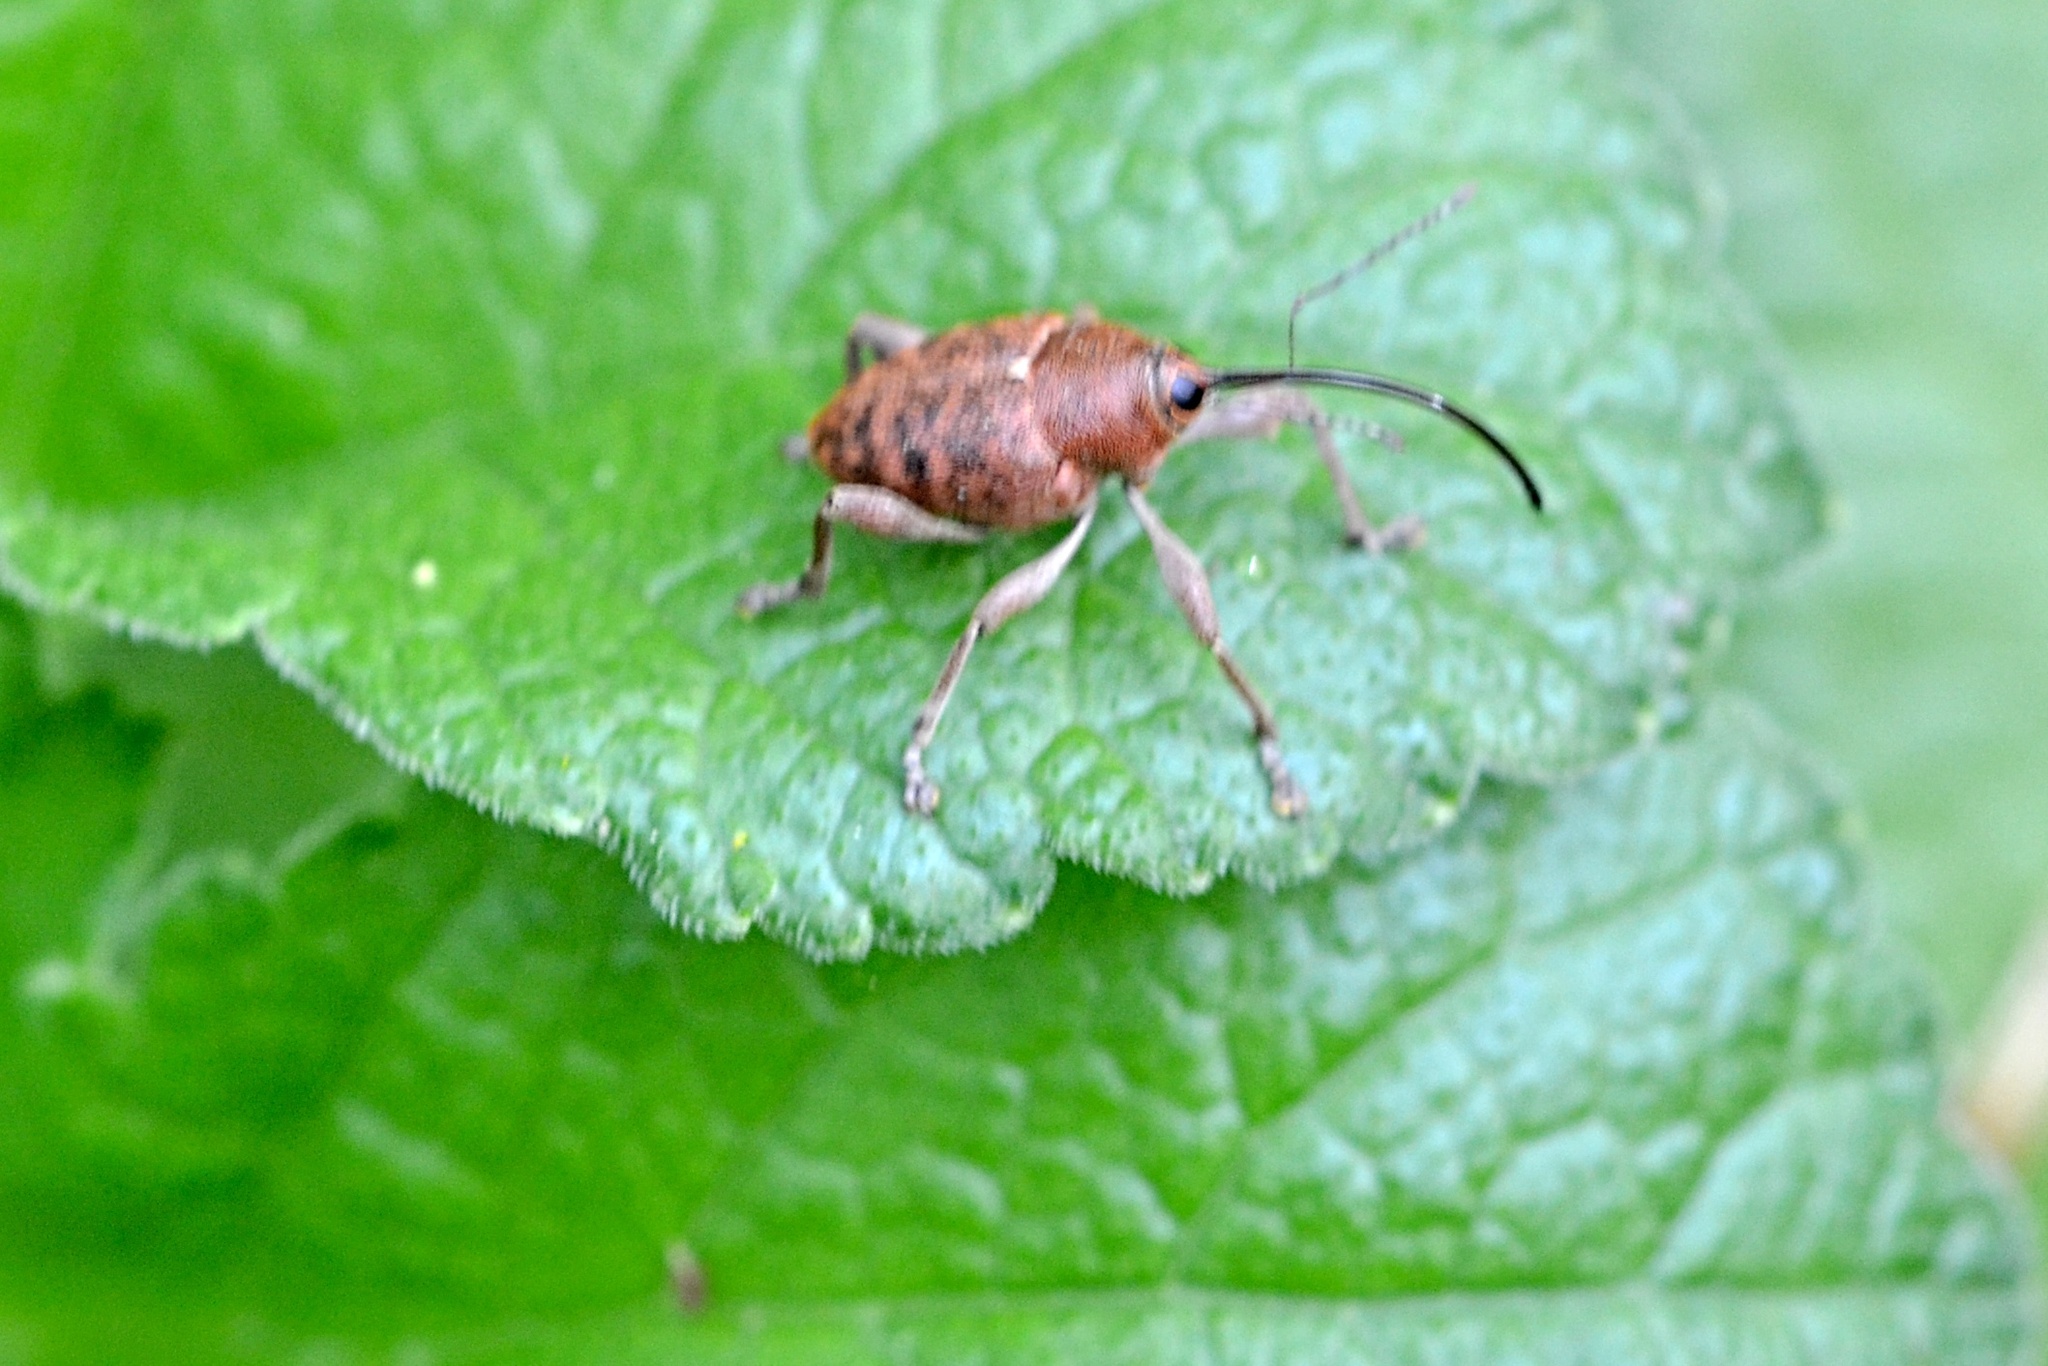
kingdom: Animalia
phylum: Arthropoda
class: Insecta
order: Coleoptera
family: Curculionidae
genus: Curculio
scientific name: Curculio glandium
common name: Acorn weevil
